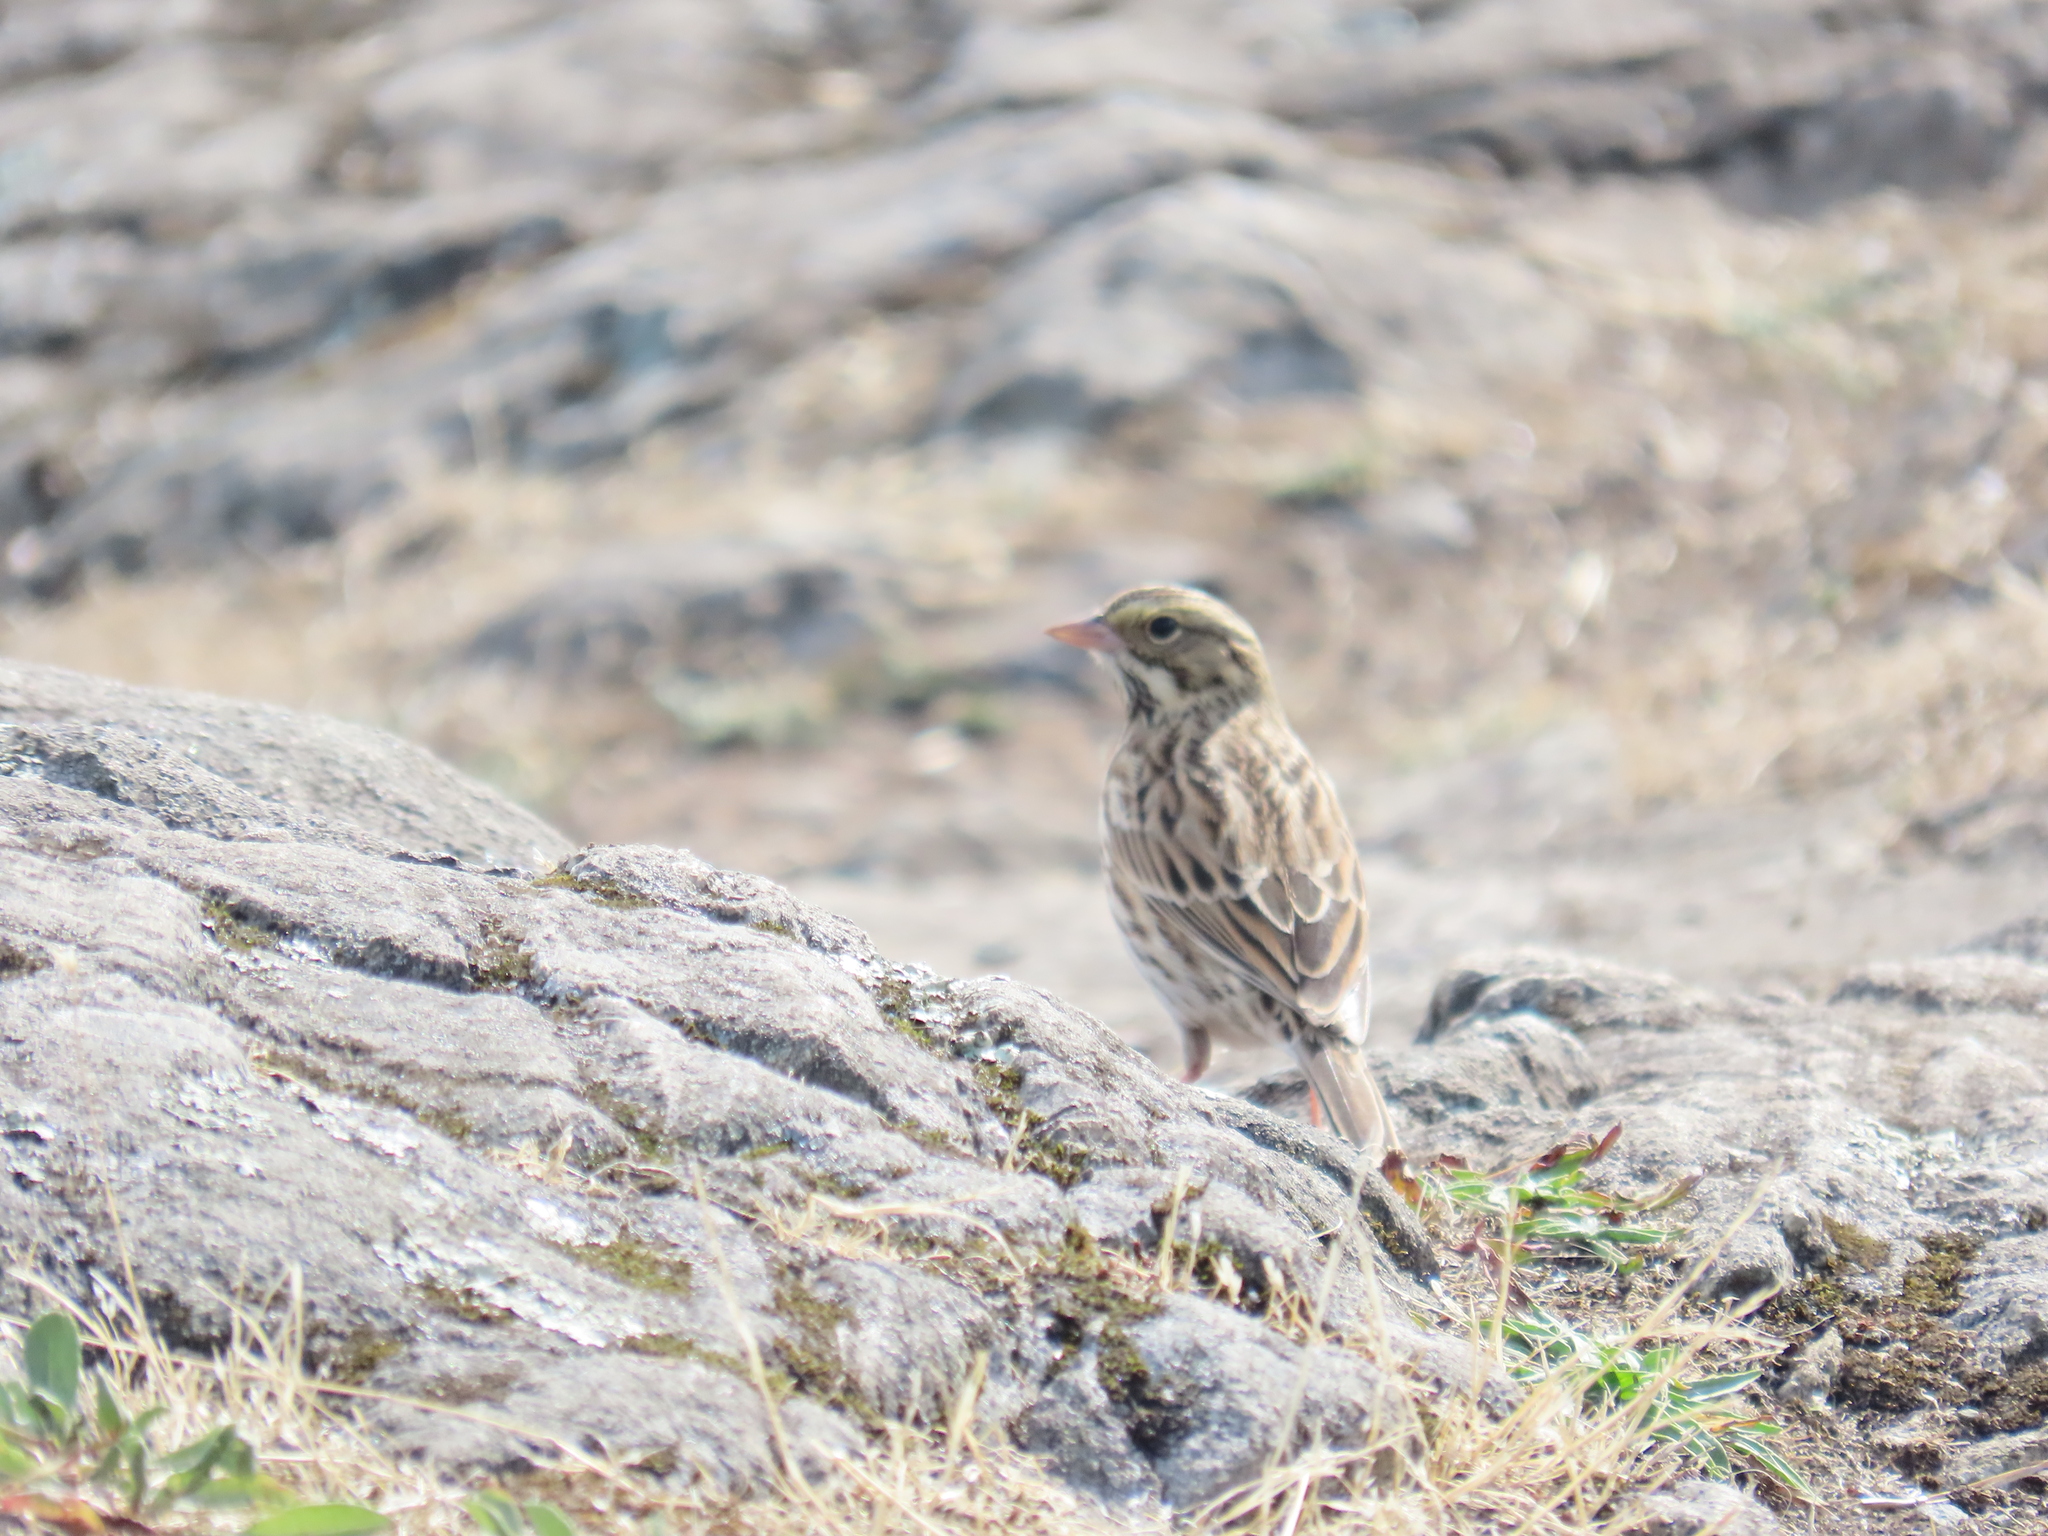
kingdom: Animalia
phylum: Chordata
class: Aves
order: Passeriformes
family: Passerellidae
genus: Passerculus
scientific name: Passerculus sandwichensis
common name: Savannah sparrow
